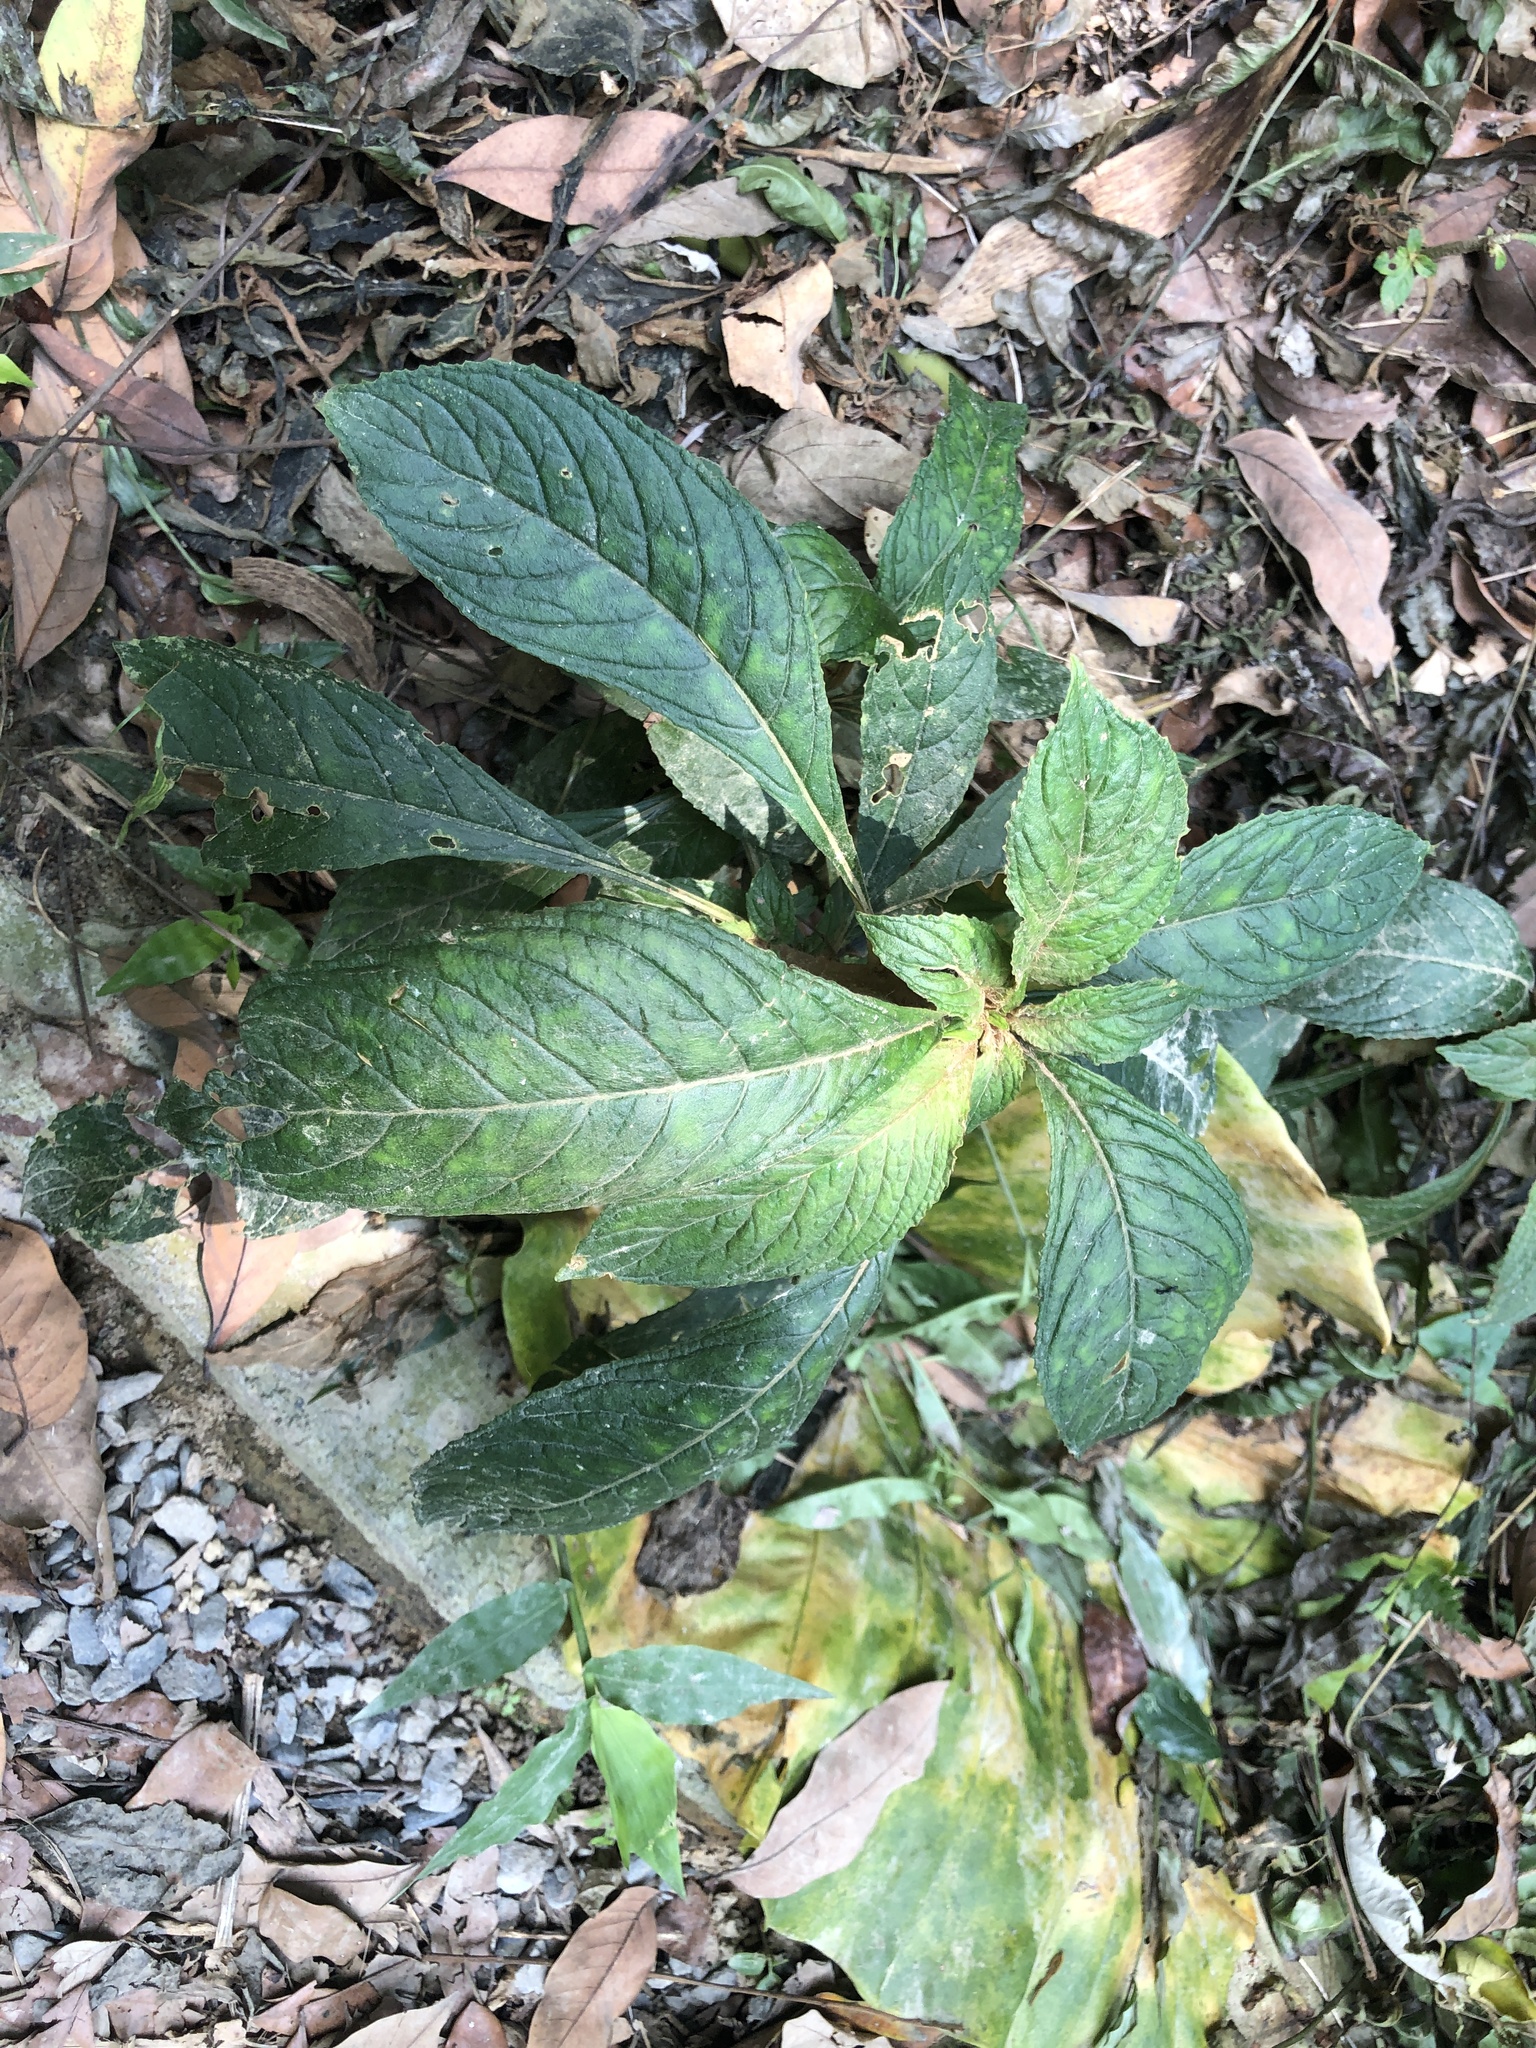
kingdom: Plantae
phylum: Tracheophyta
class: Magnoliopsida
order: Lamiales
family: Gesneriaceae
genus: Rhynchotechum
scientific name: Rhynchotechum discolor
